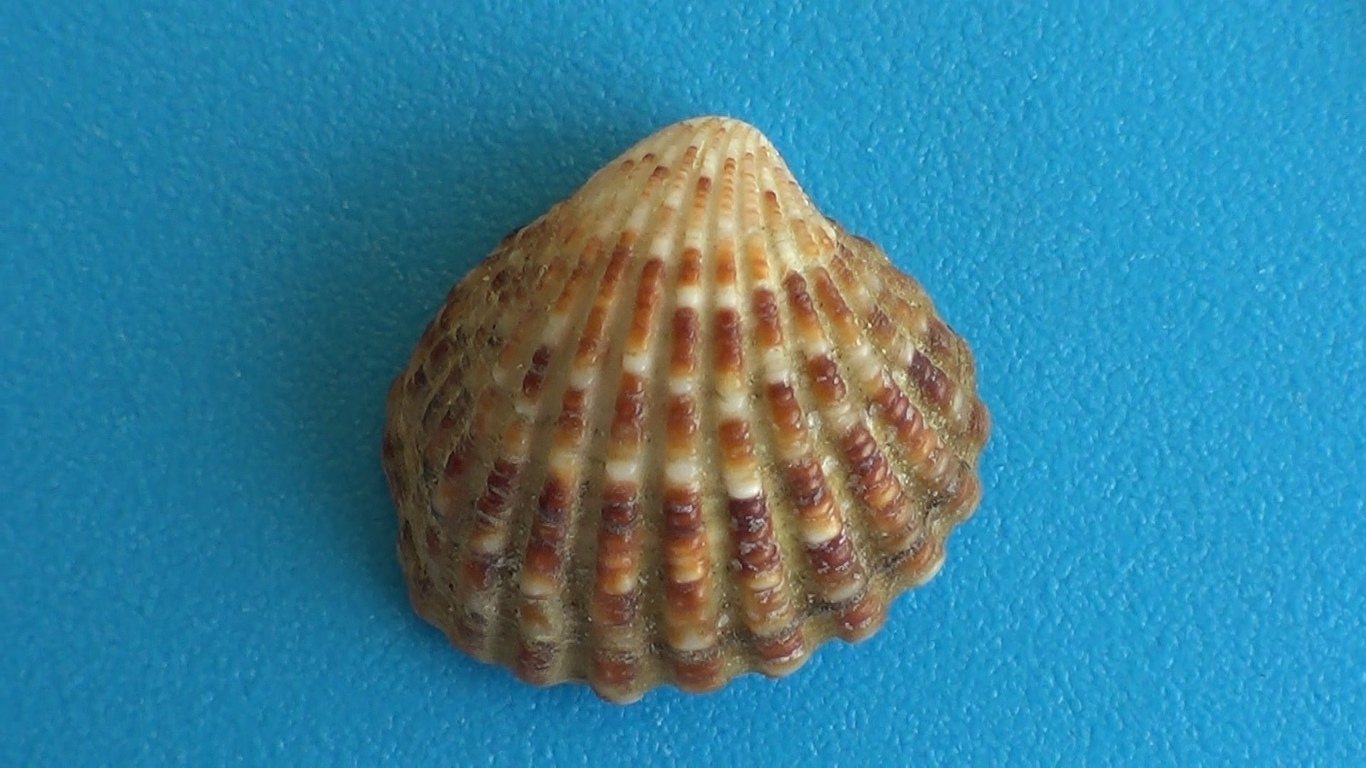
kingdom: Animalia
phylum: Mollusca
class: Bivalvia
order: Carditida
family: Carditidae
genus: Cardites
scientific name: Cardites antiquatus
